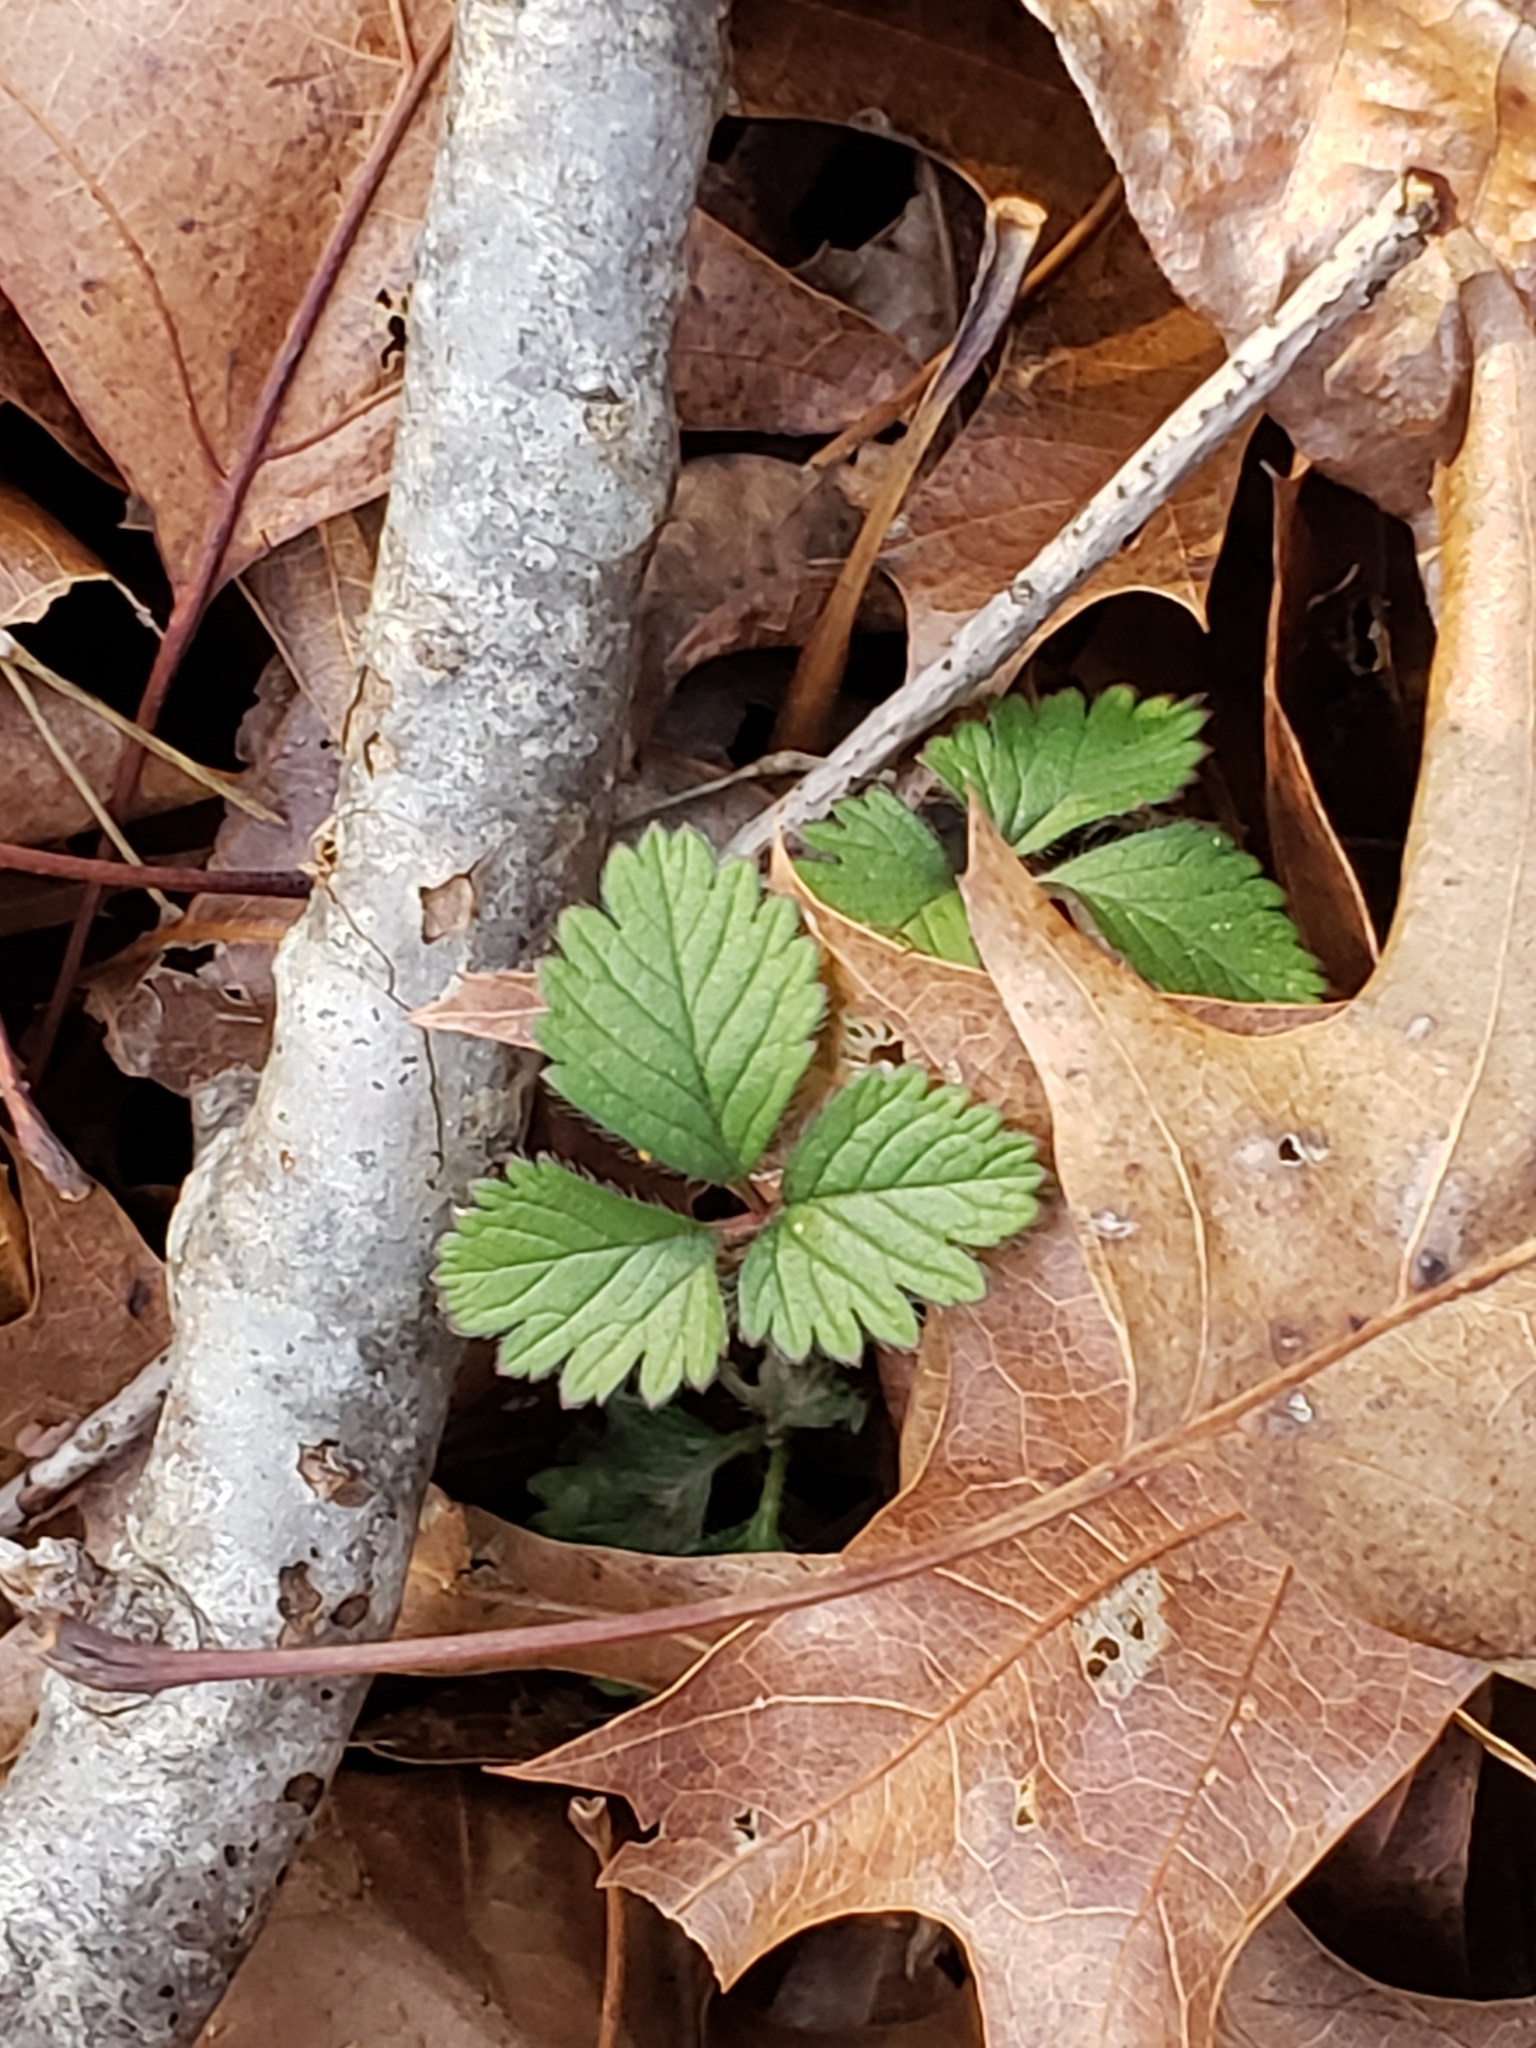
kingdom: Plantae
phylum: Tracheophyta
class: Magnoliopsida
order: Rosales
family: Rosaceae
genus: Potentilla
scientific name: Potentilla indica
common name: Yellow-flowered strawberry
